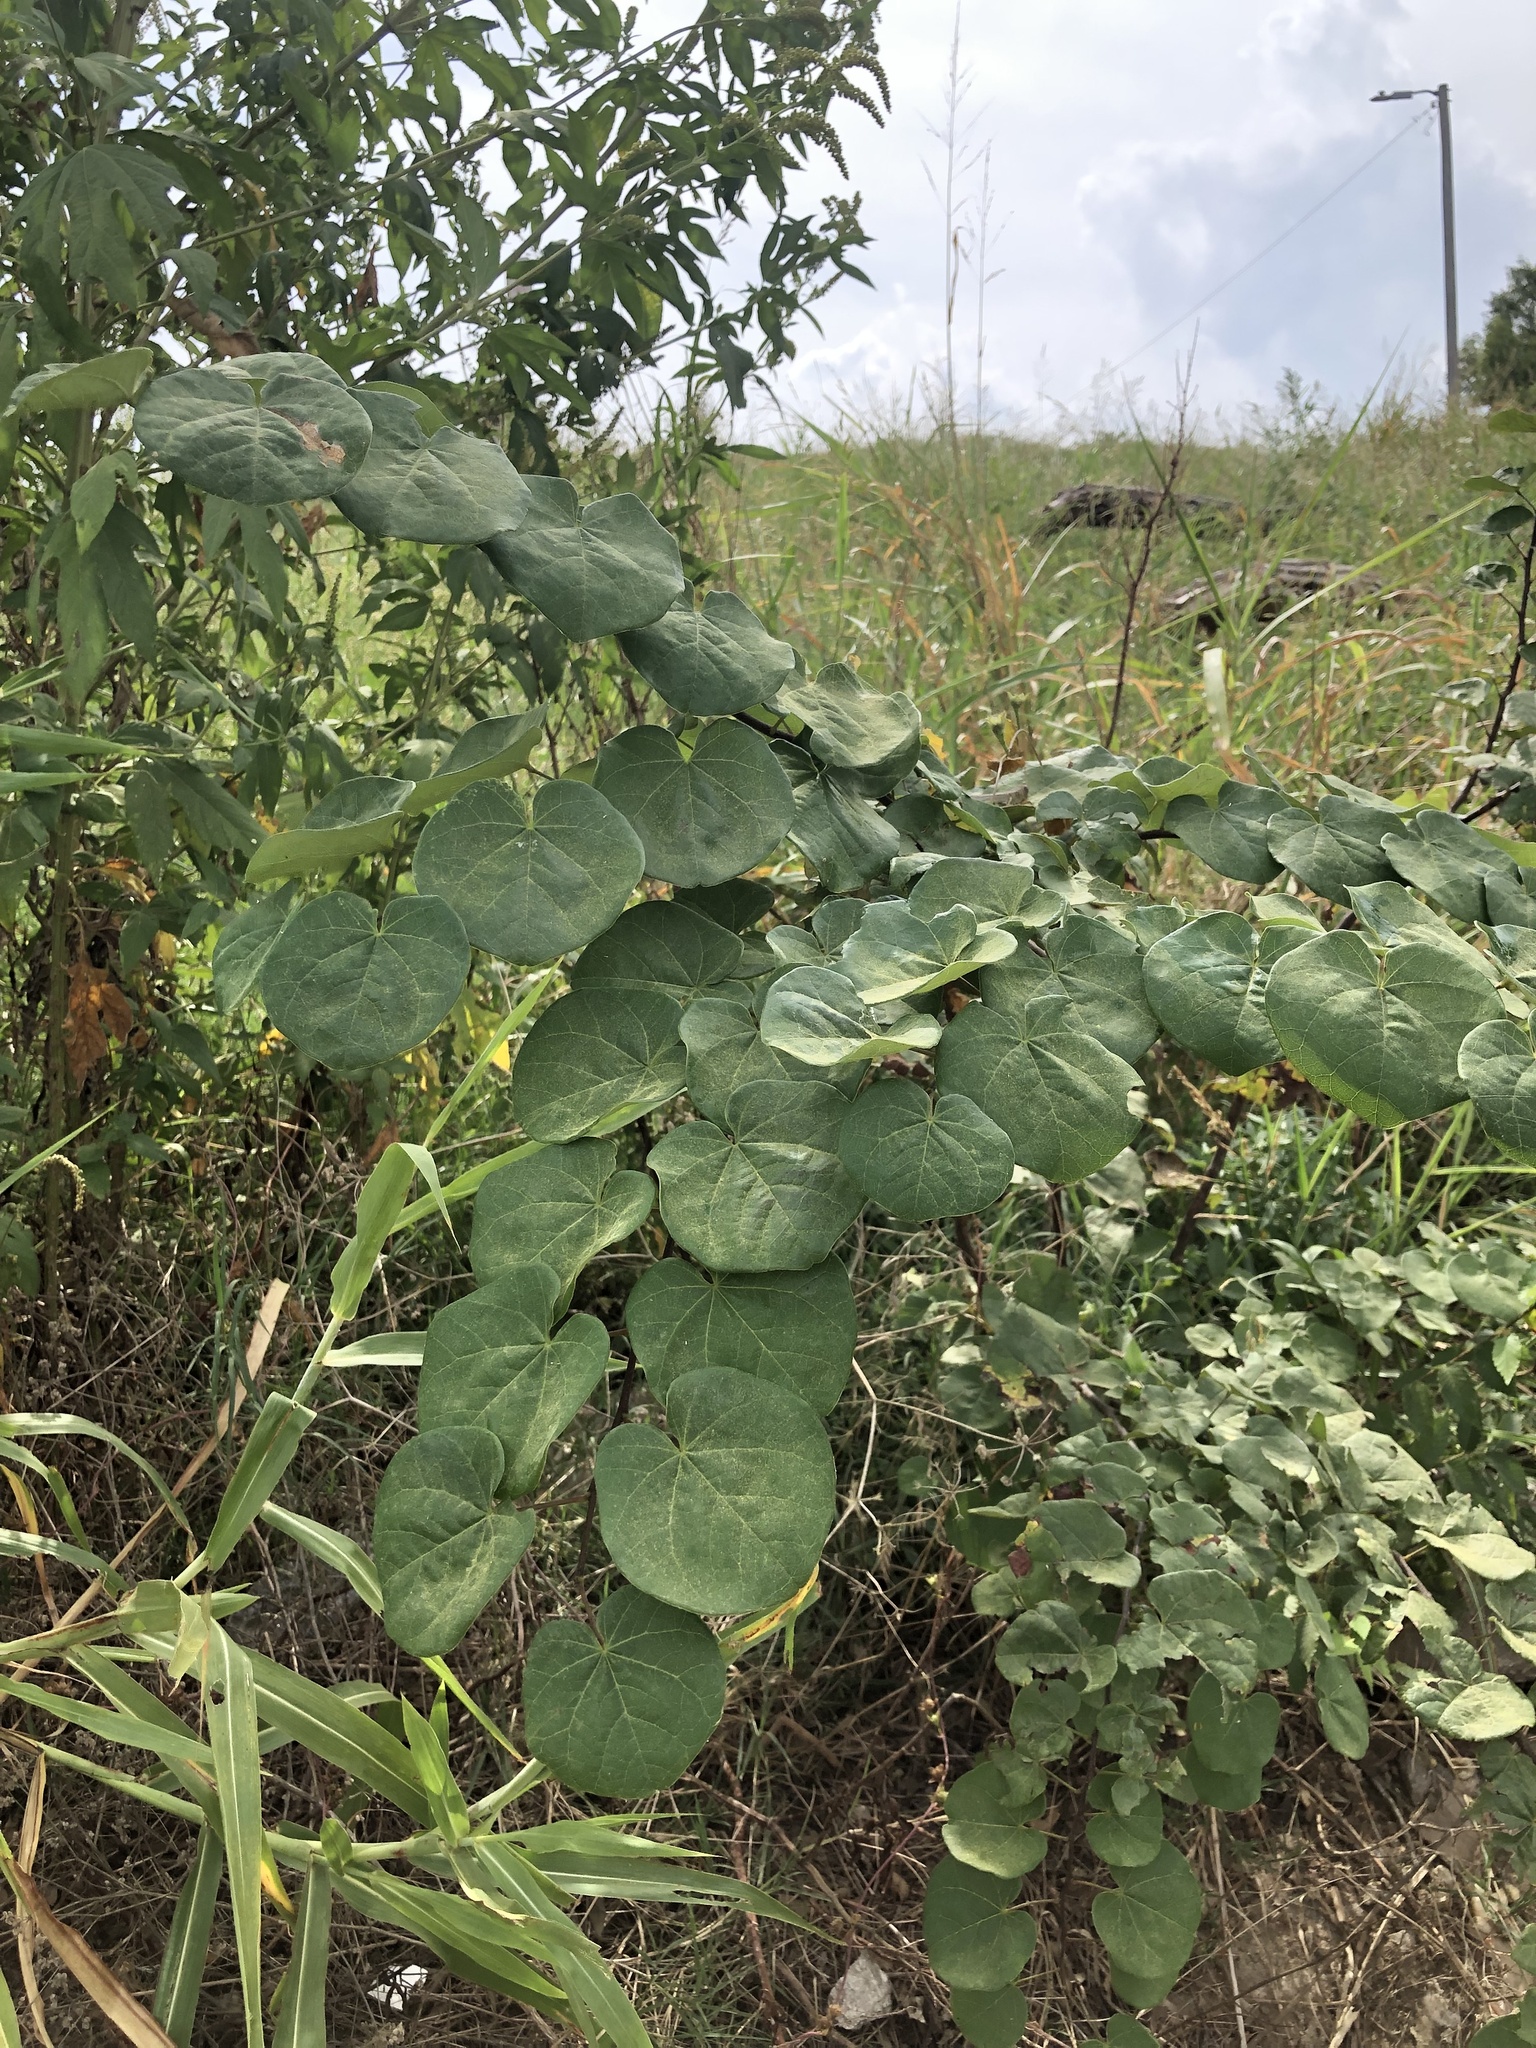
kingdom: Plantae
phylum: Tracheophyta
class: Magnoliopsida
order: Fabales
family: Fabaceae
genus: Cercis
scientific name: Cercis canadensis
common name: Eastern redbud
